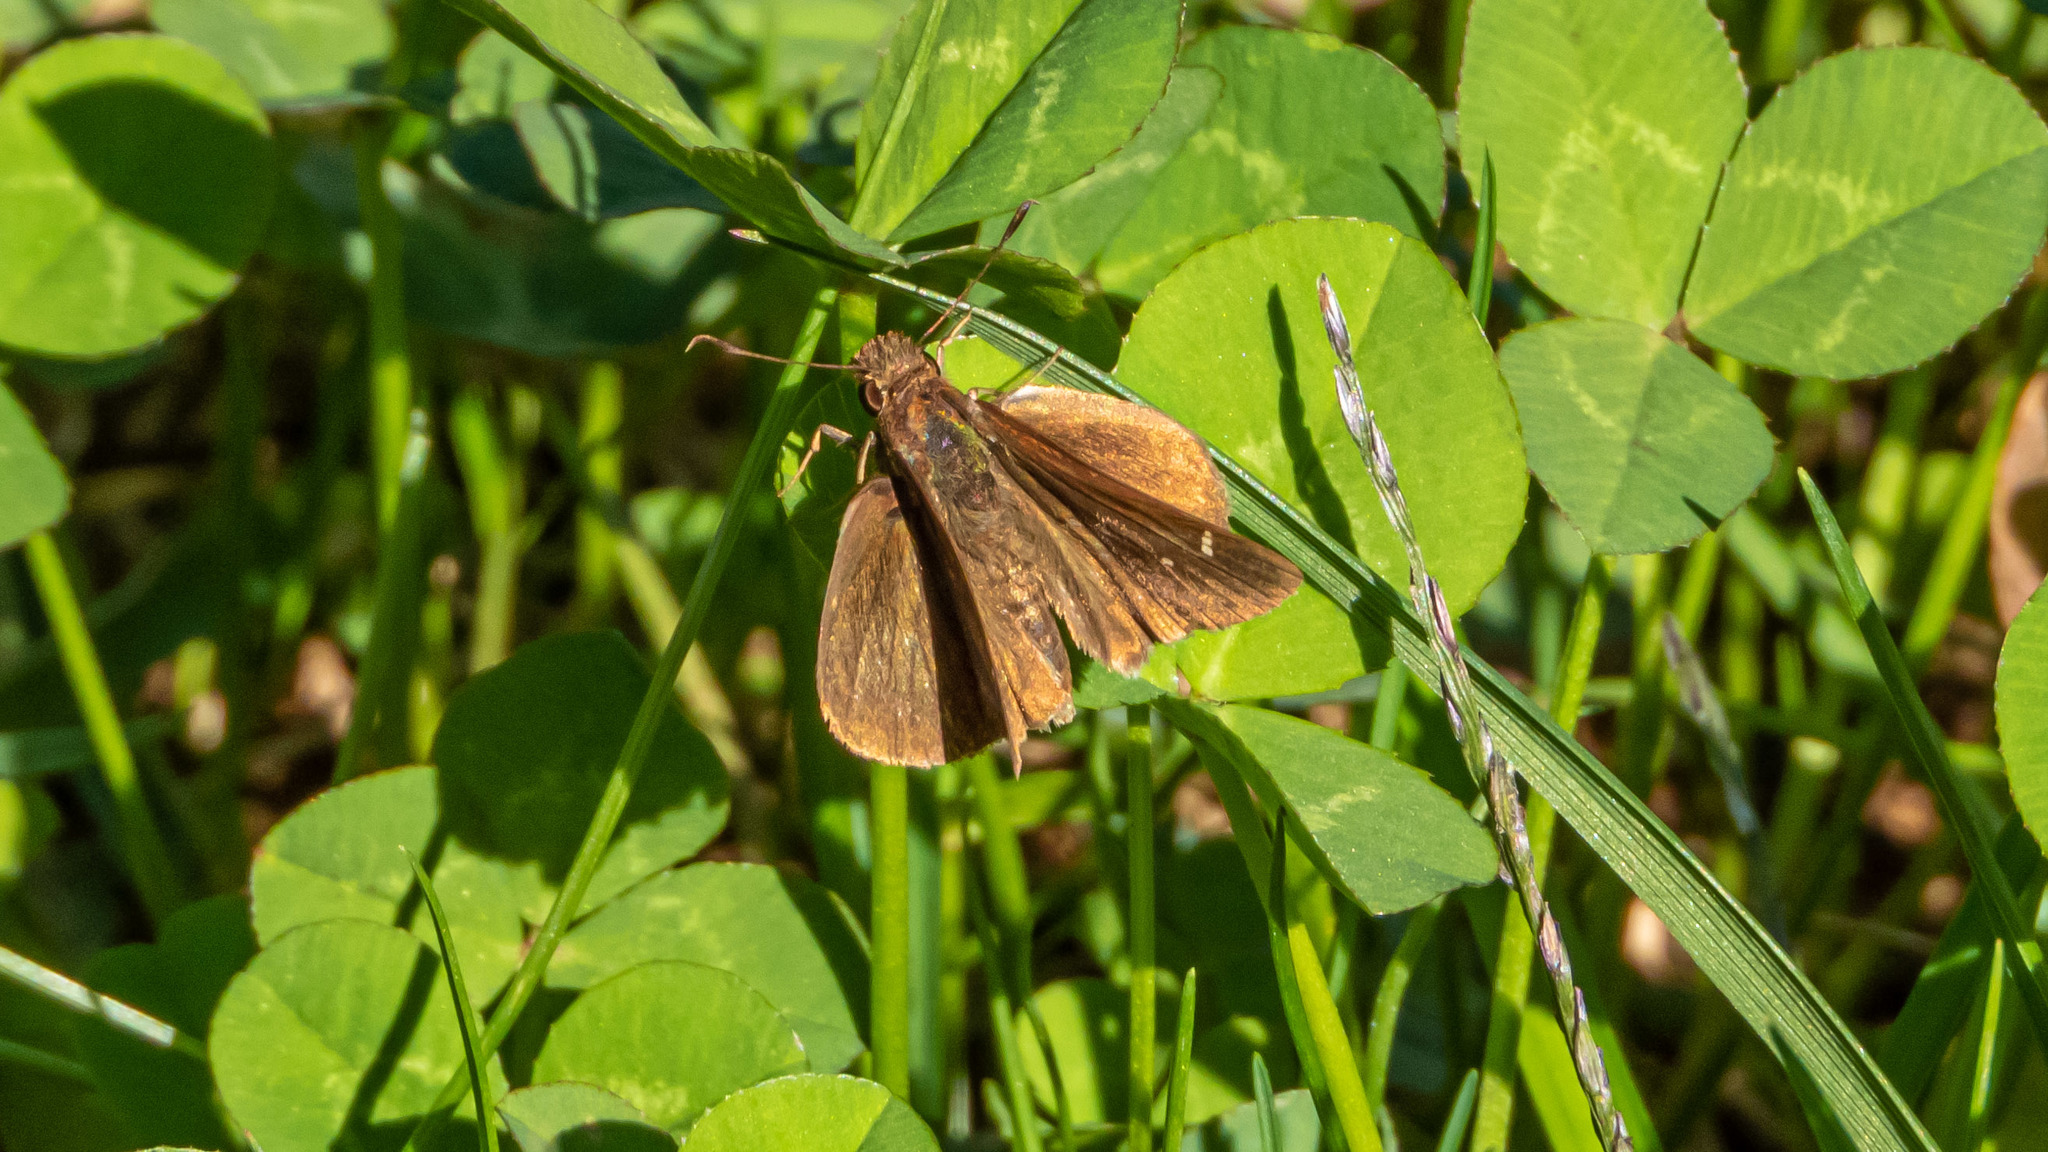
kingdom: Animalia
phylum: Arthropoda
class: Insecta
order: Lepidoptera
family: Hesperiidae
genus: Lerema
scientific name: Lerema accius
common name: Clouded skipper
